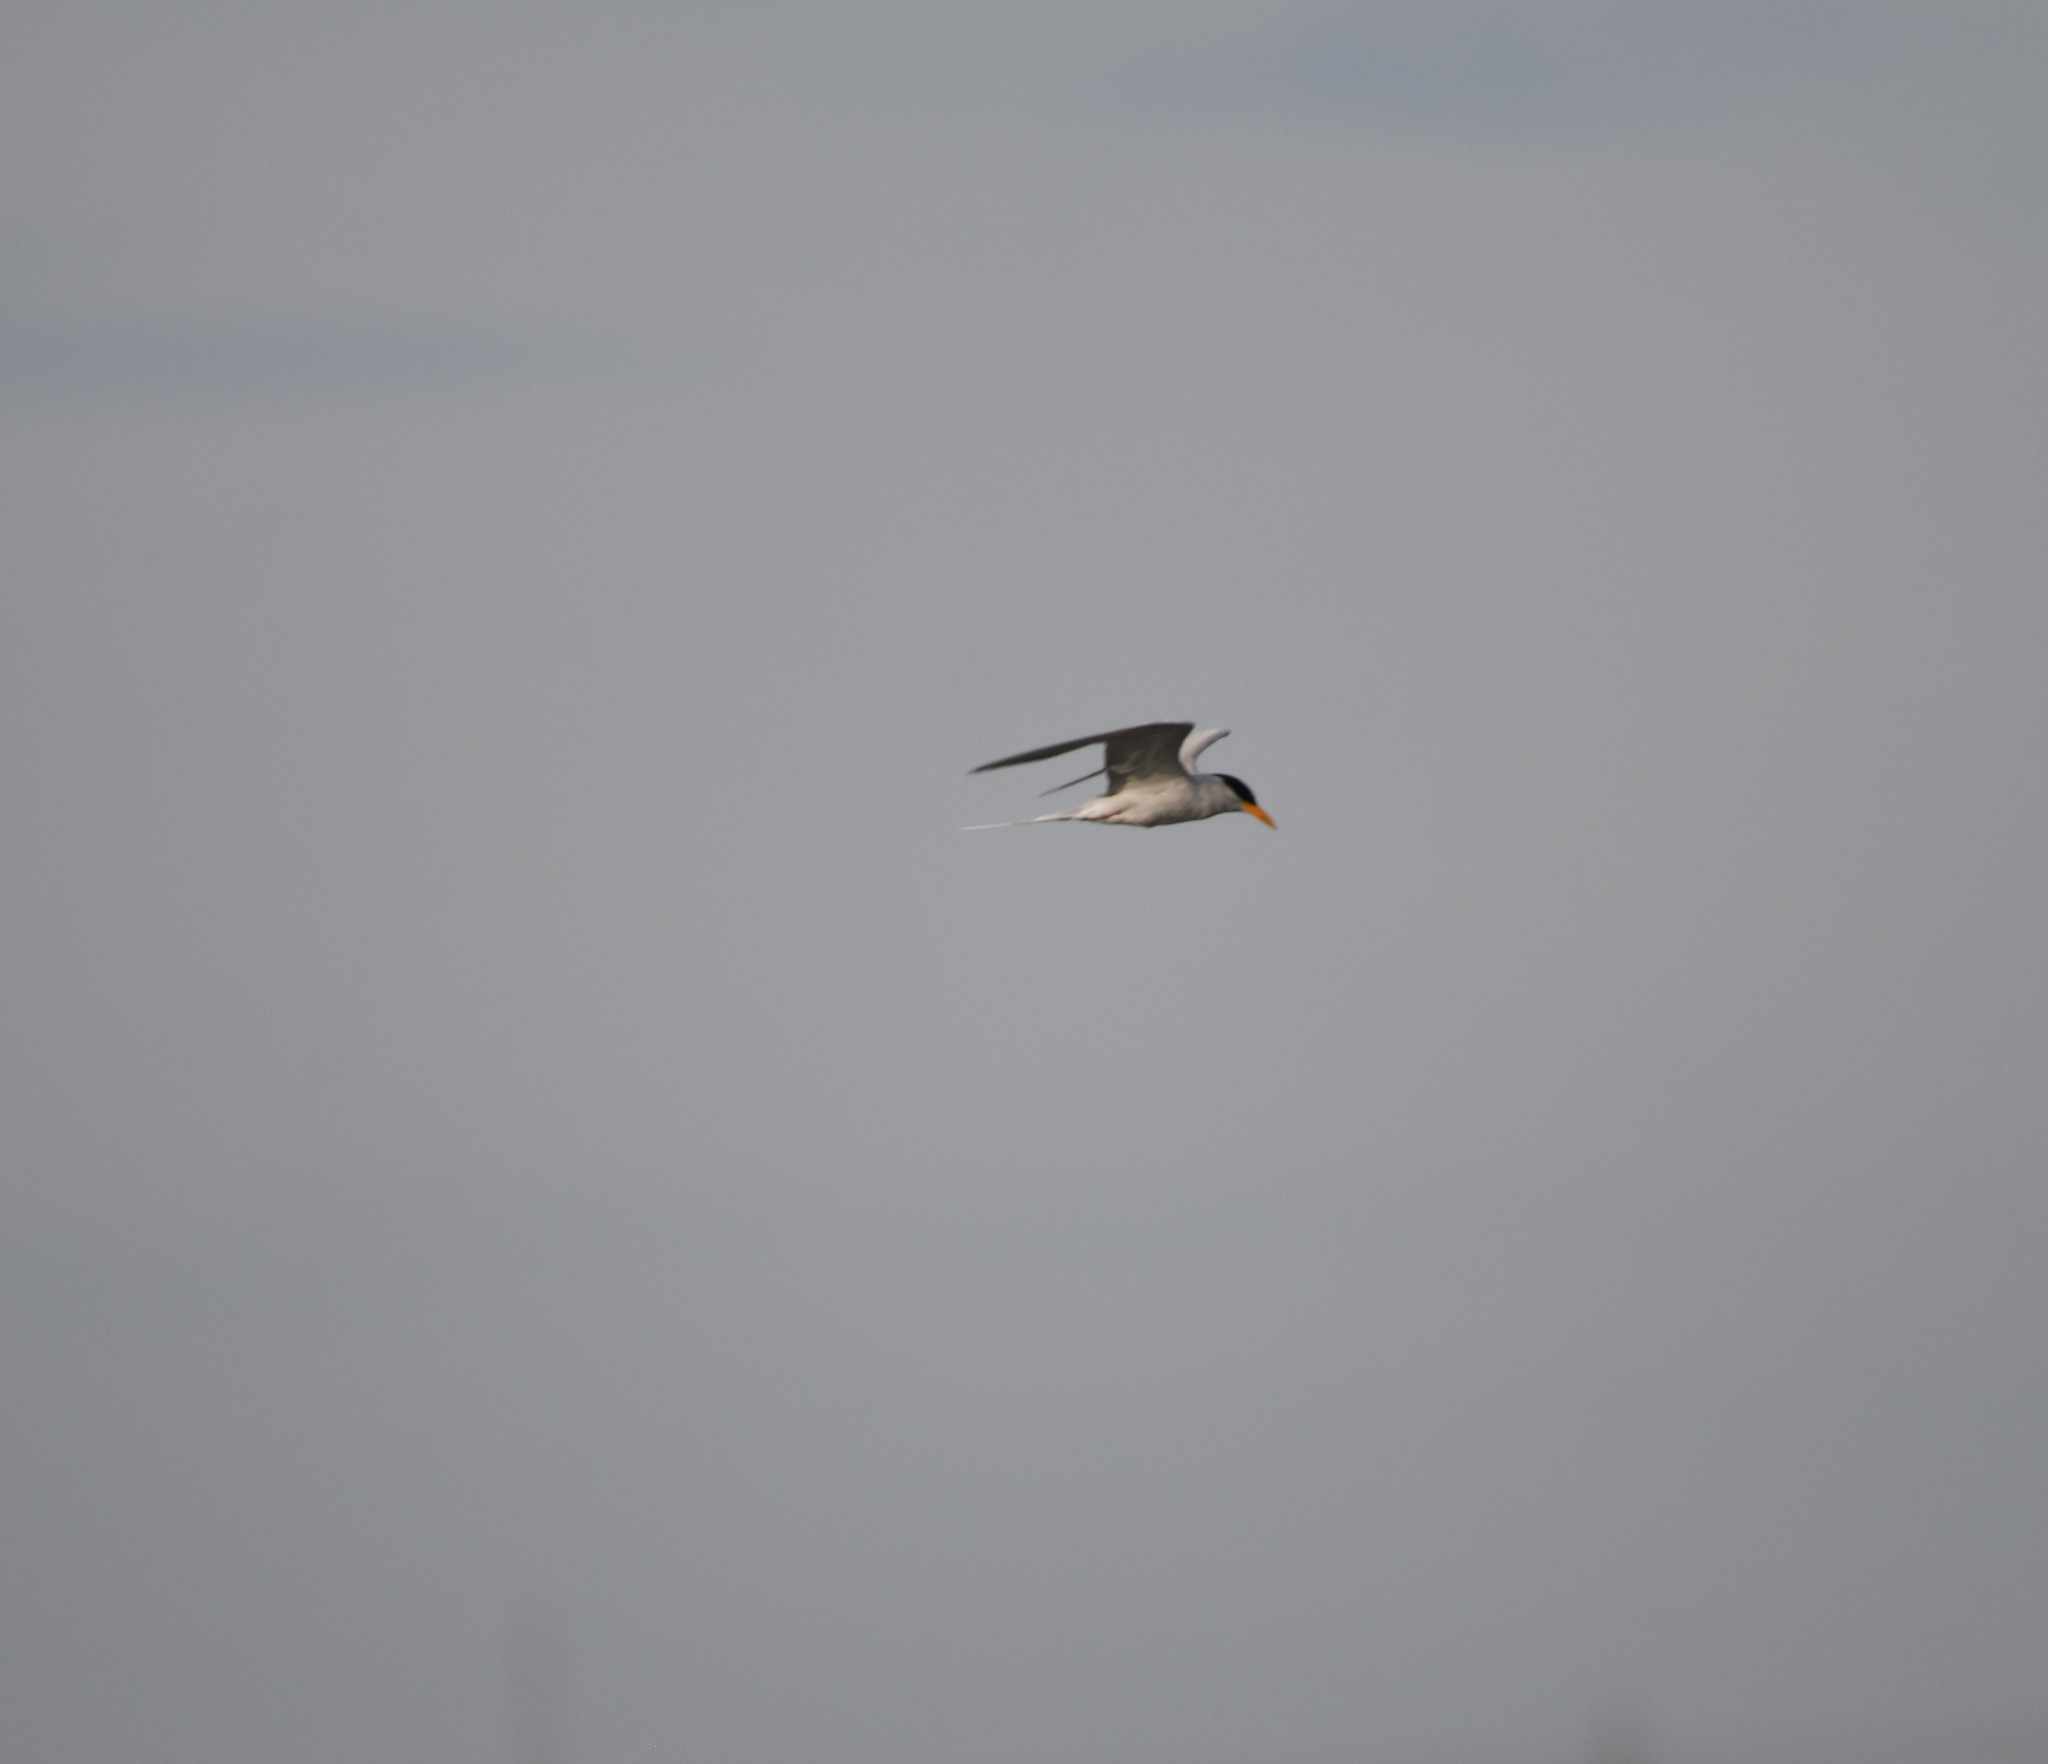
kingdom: Animalia
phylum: Chordata
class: Aves
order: Charadriiformes
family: Laridae
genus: Sterna
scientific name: Sterna aurantia
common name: River tern
